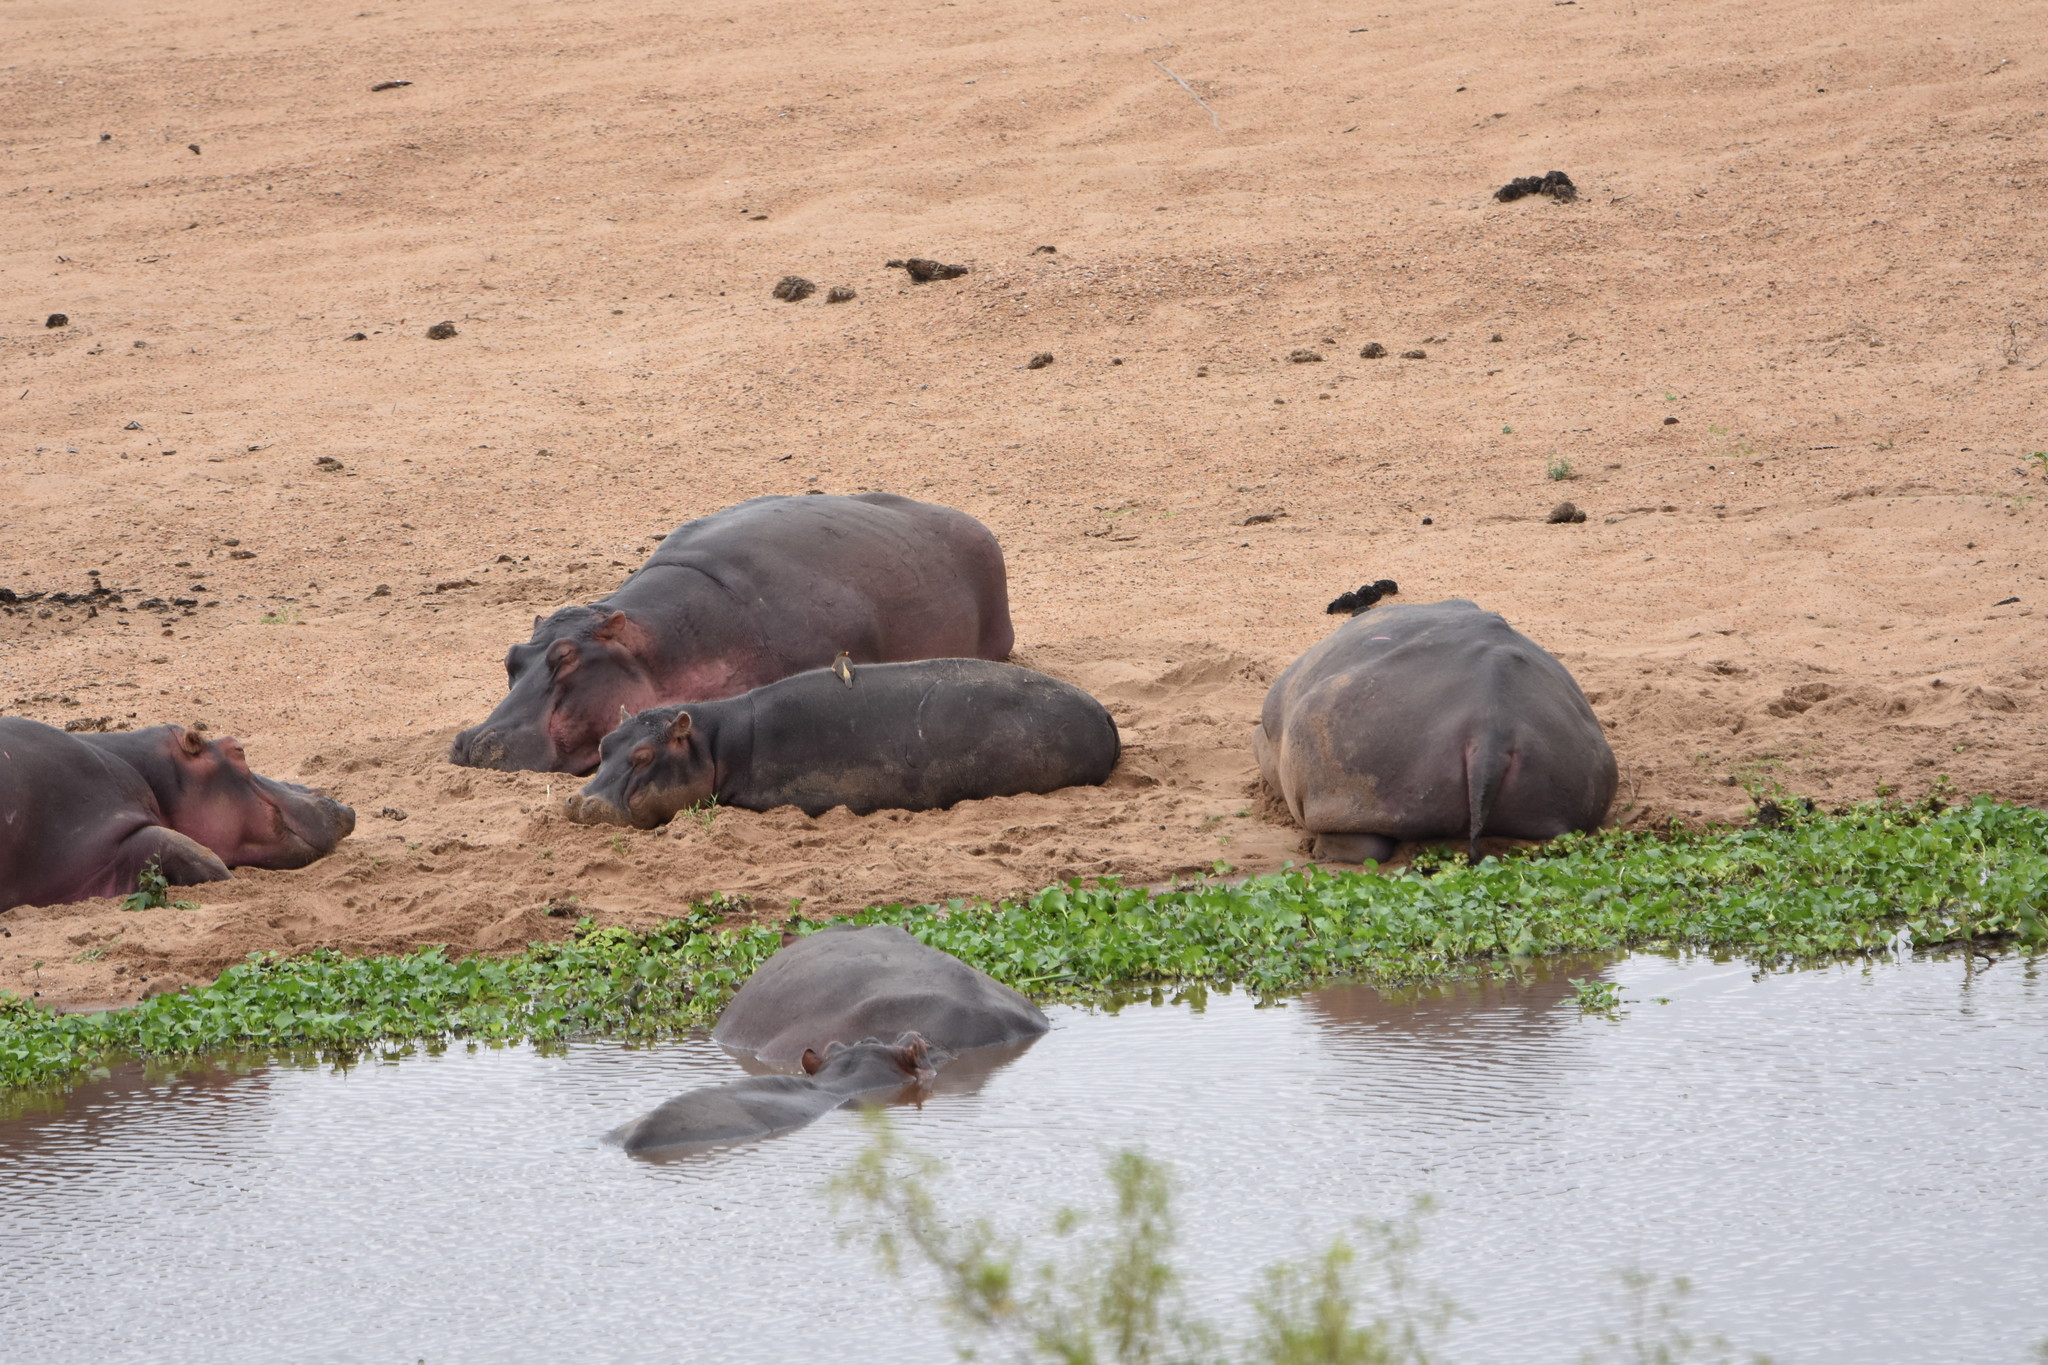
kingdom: Animalia
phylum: Chordata
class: Mammalia
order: Artiodactyla
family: Hippopotamidae
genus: Hippopotamus
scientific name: Hippopotamus amphibius
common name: Common hippopotamus
